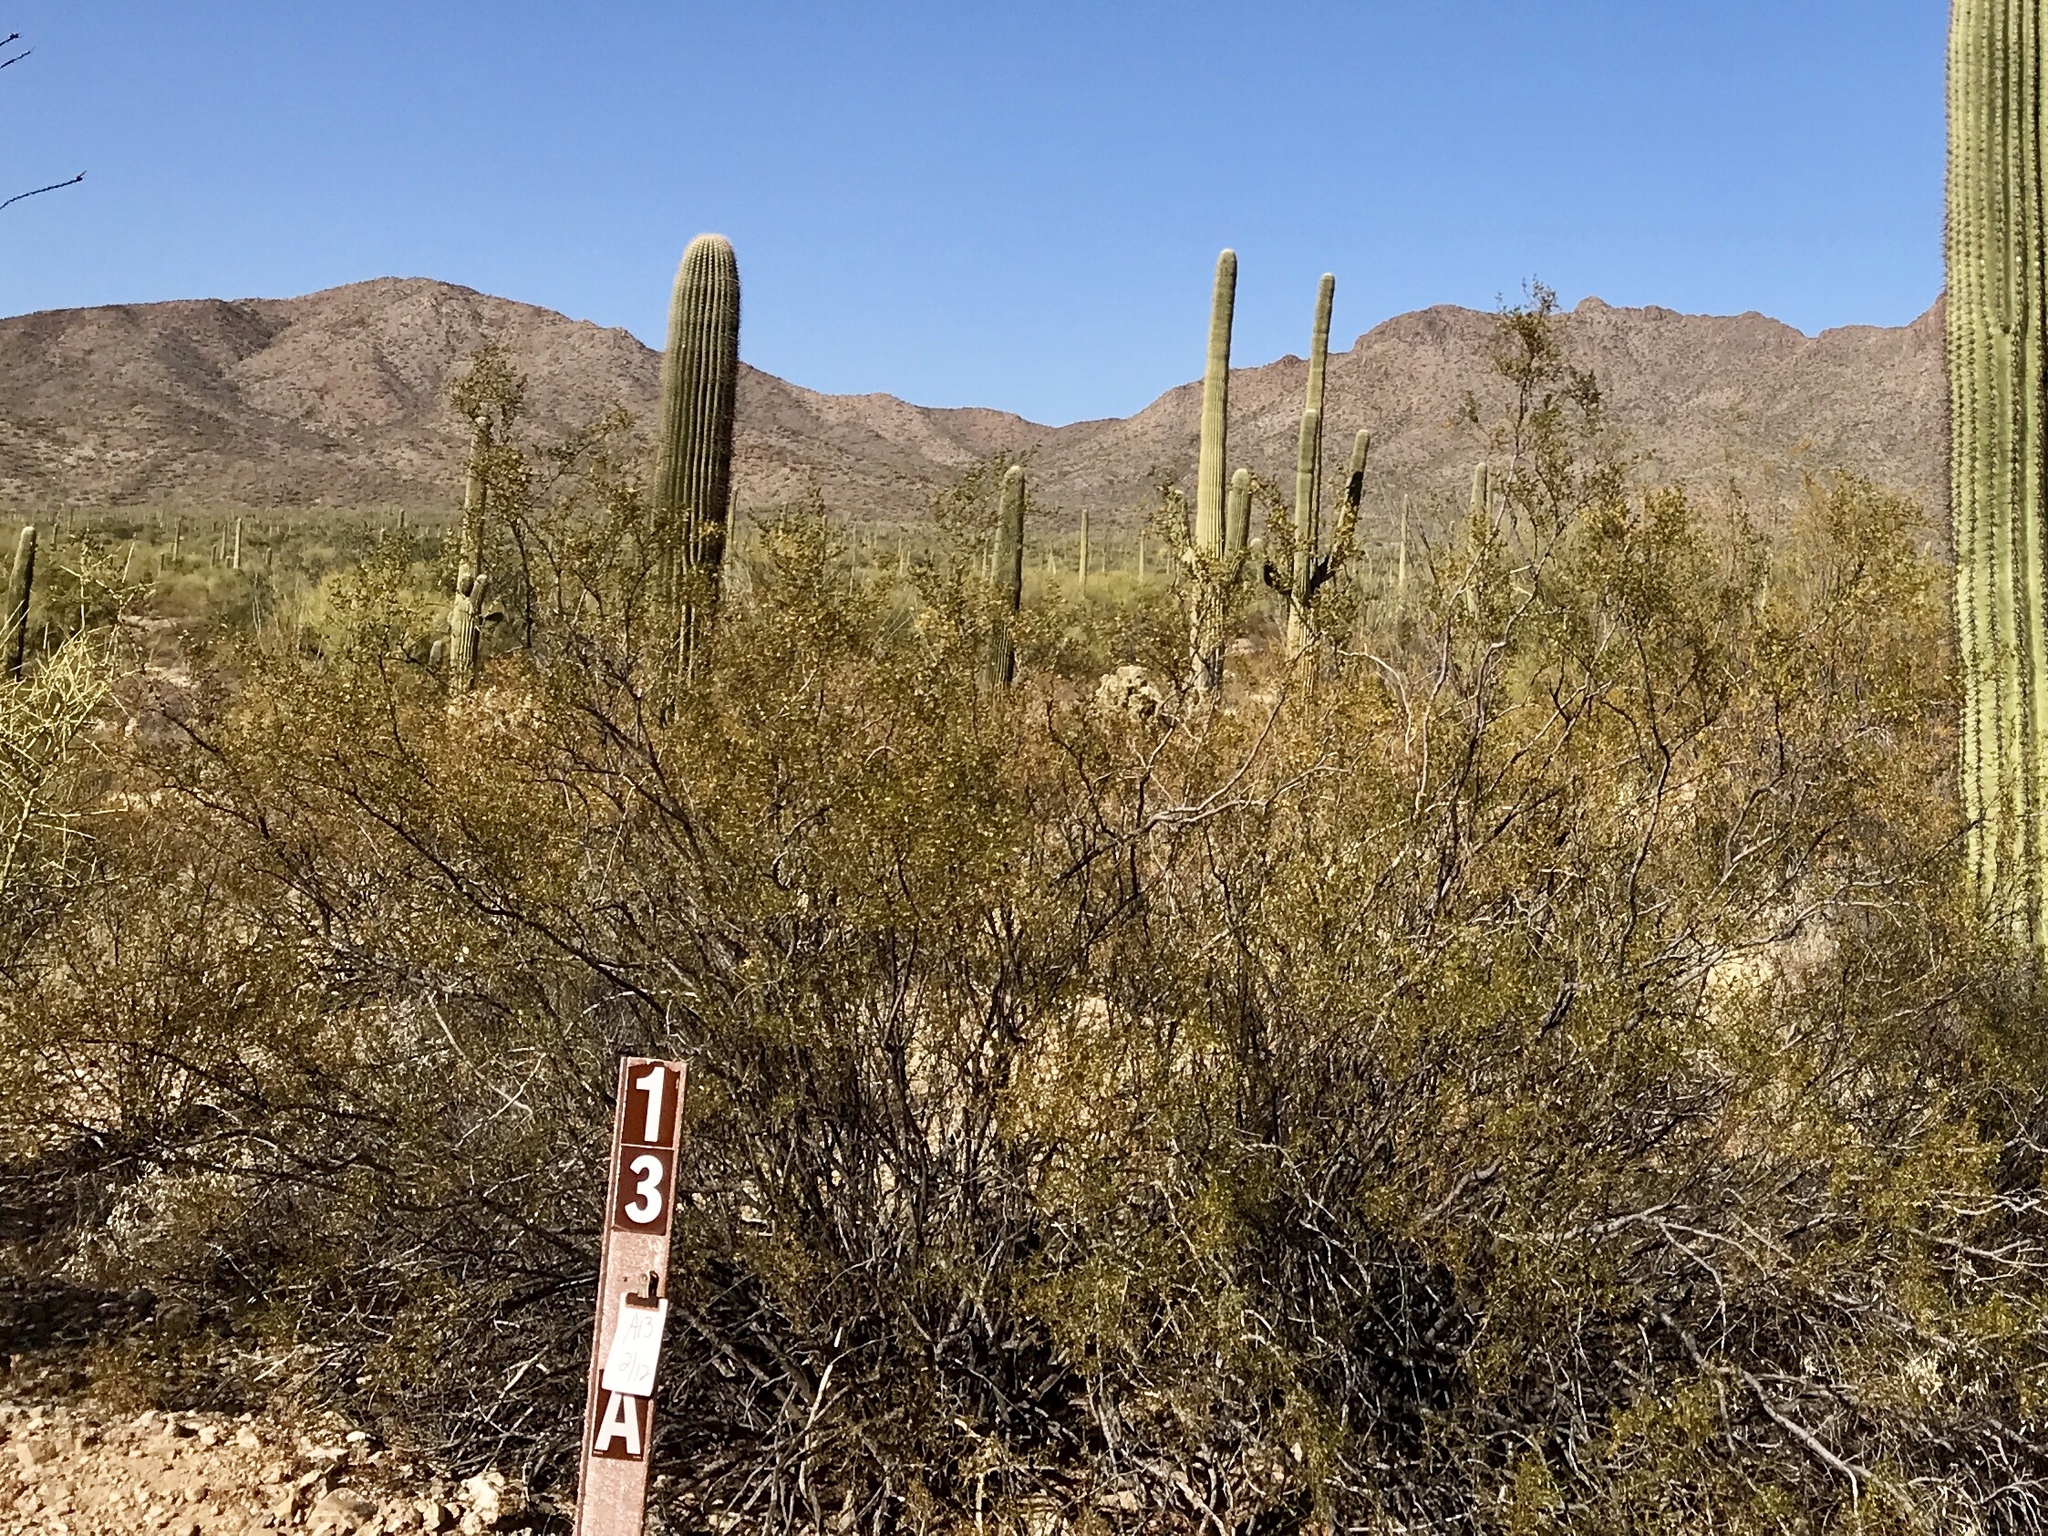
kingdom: Plantae
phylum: Tracheophyta
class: Magnoliopsida
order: Zygophyllales
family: Zygophyllaceae
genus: Larrea
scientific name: Larrea tridentata
